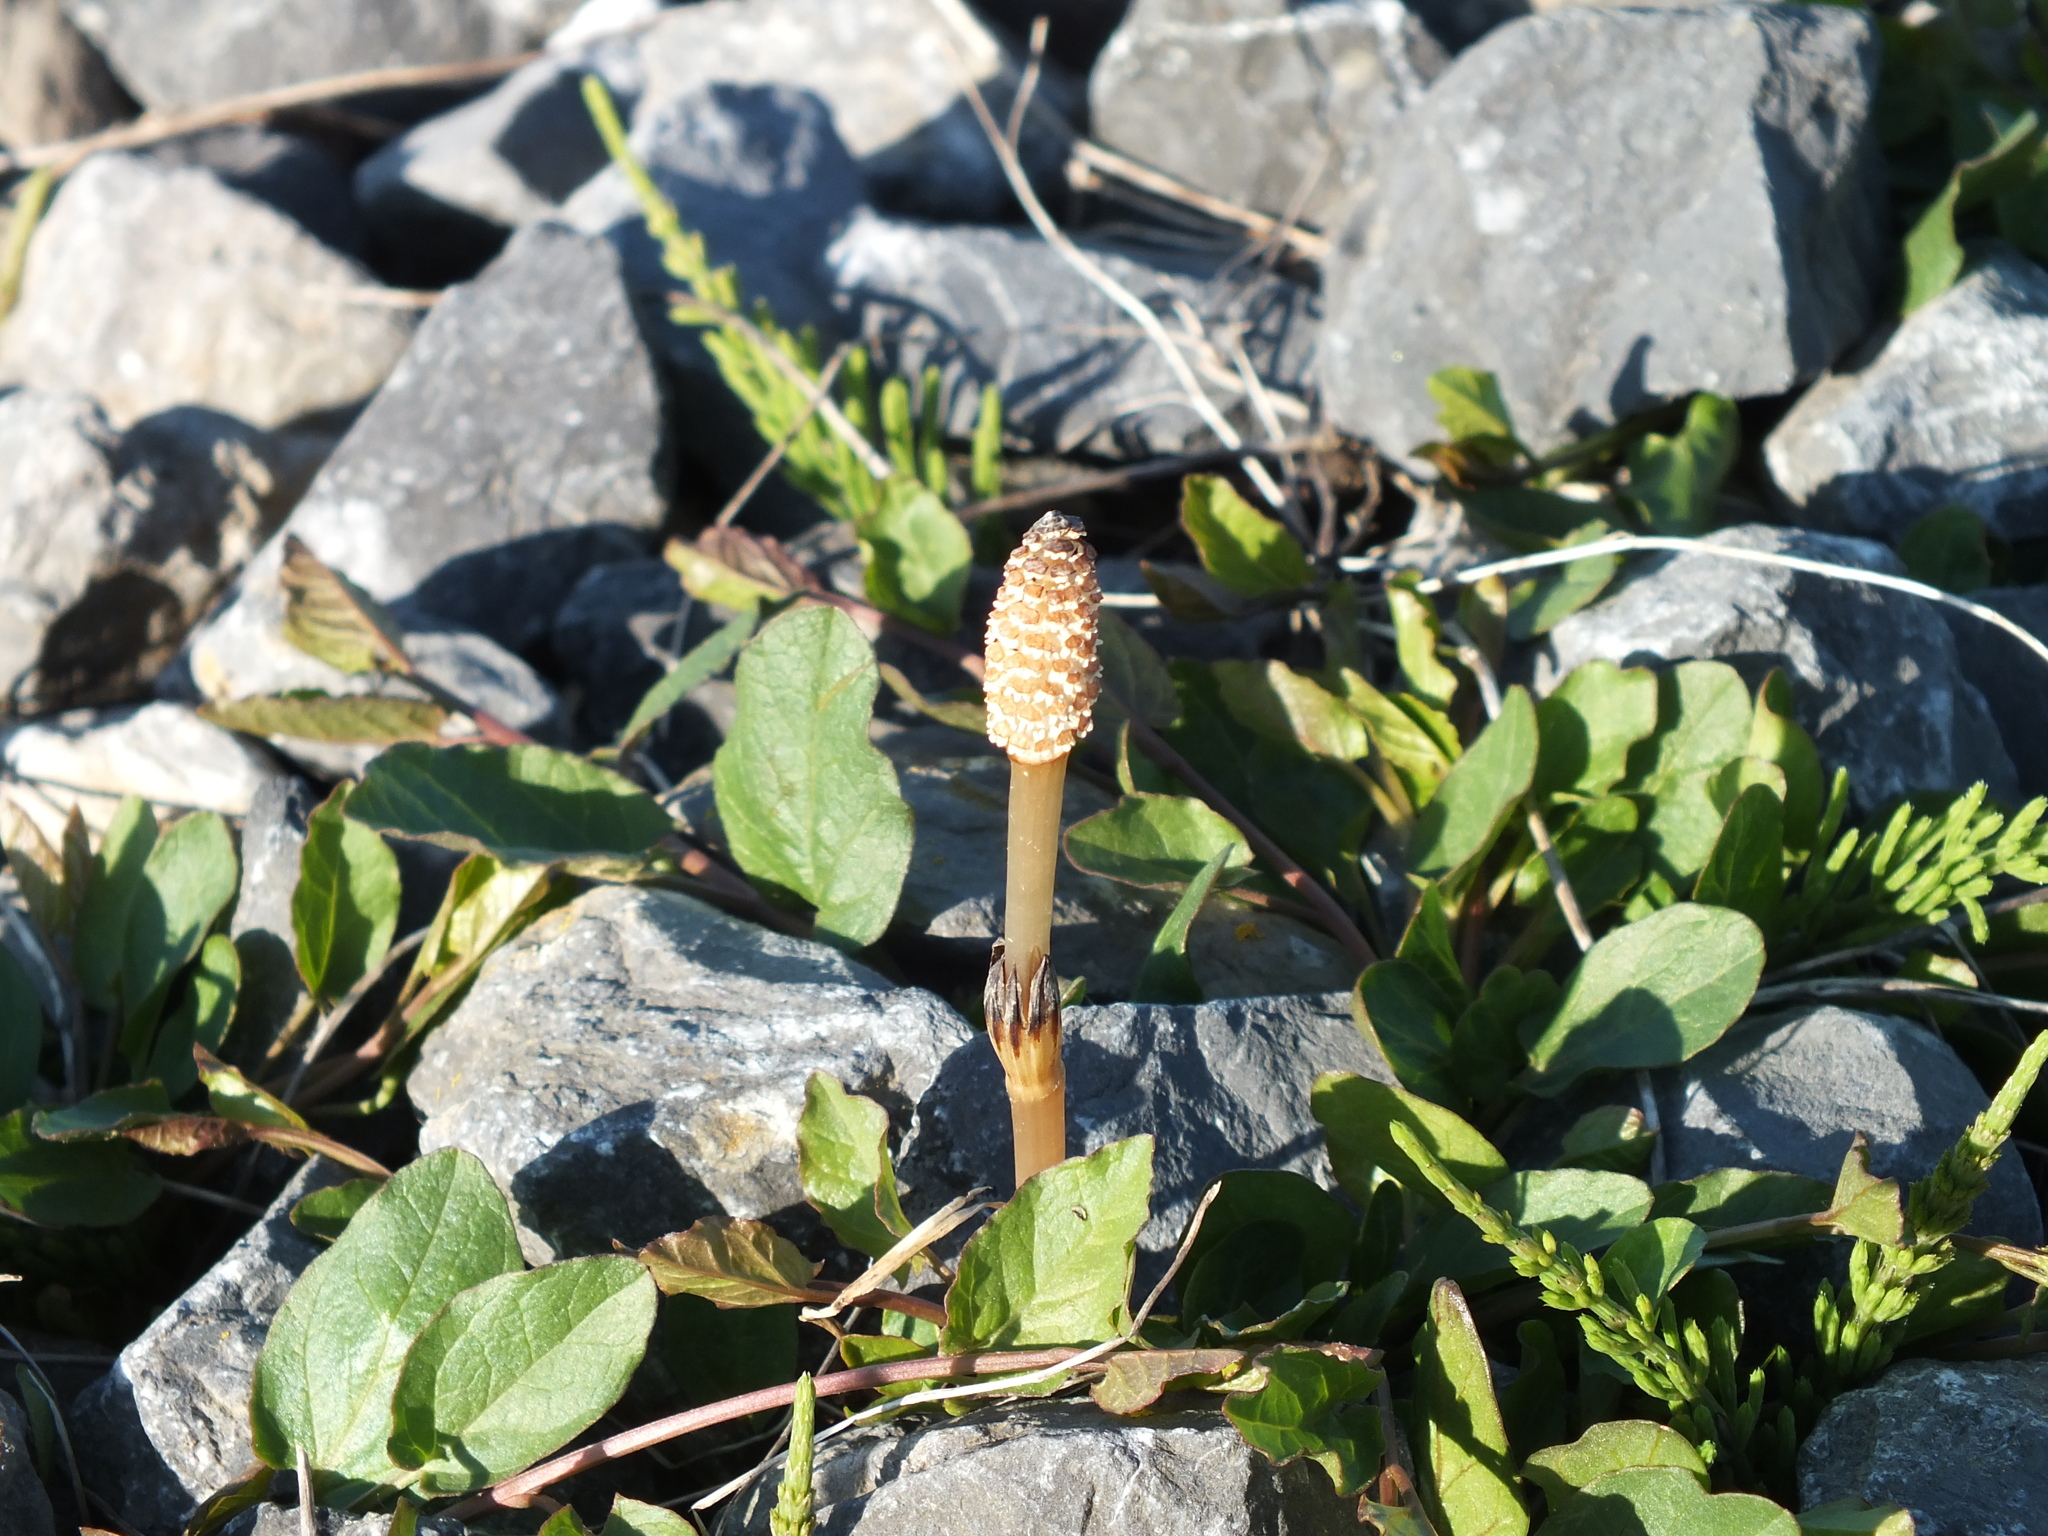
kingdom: Plantae
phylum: Tracheophyta
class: Polypodiopsida
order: Equisetales
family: Equisetaceae
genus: Equisetum
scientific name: Equisetum arvense
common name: Field horsetail
